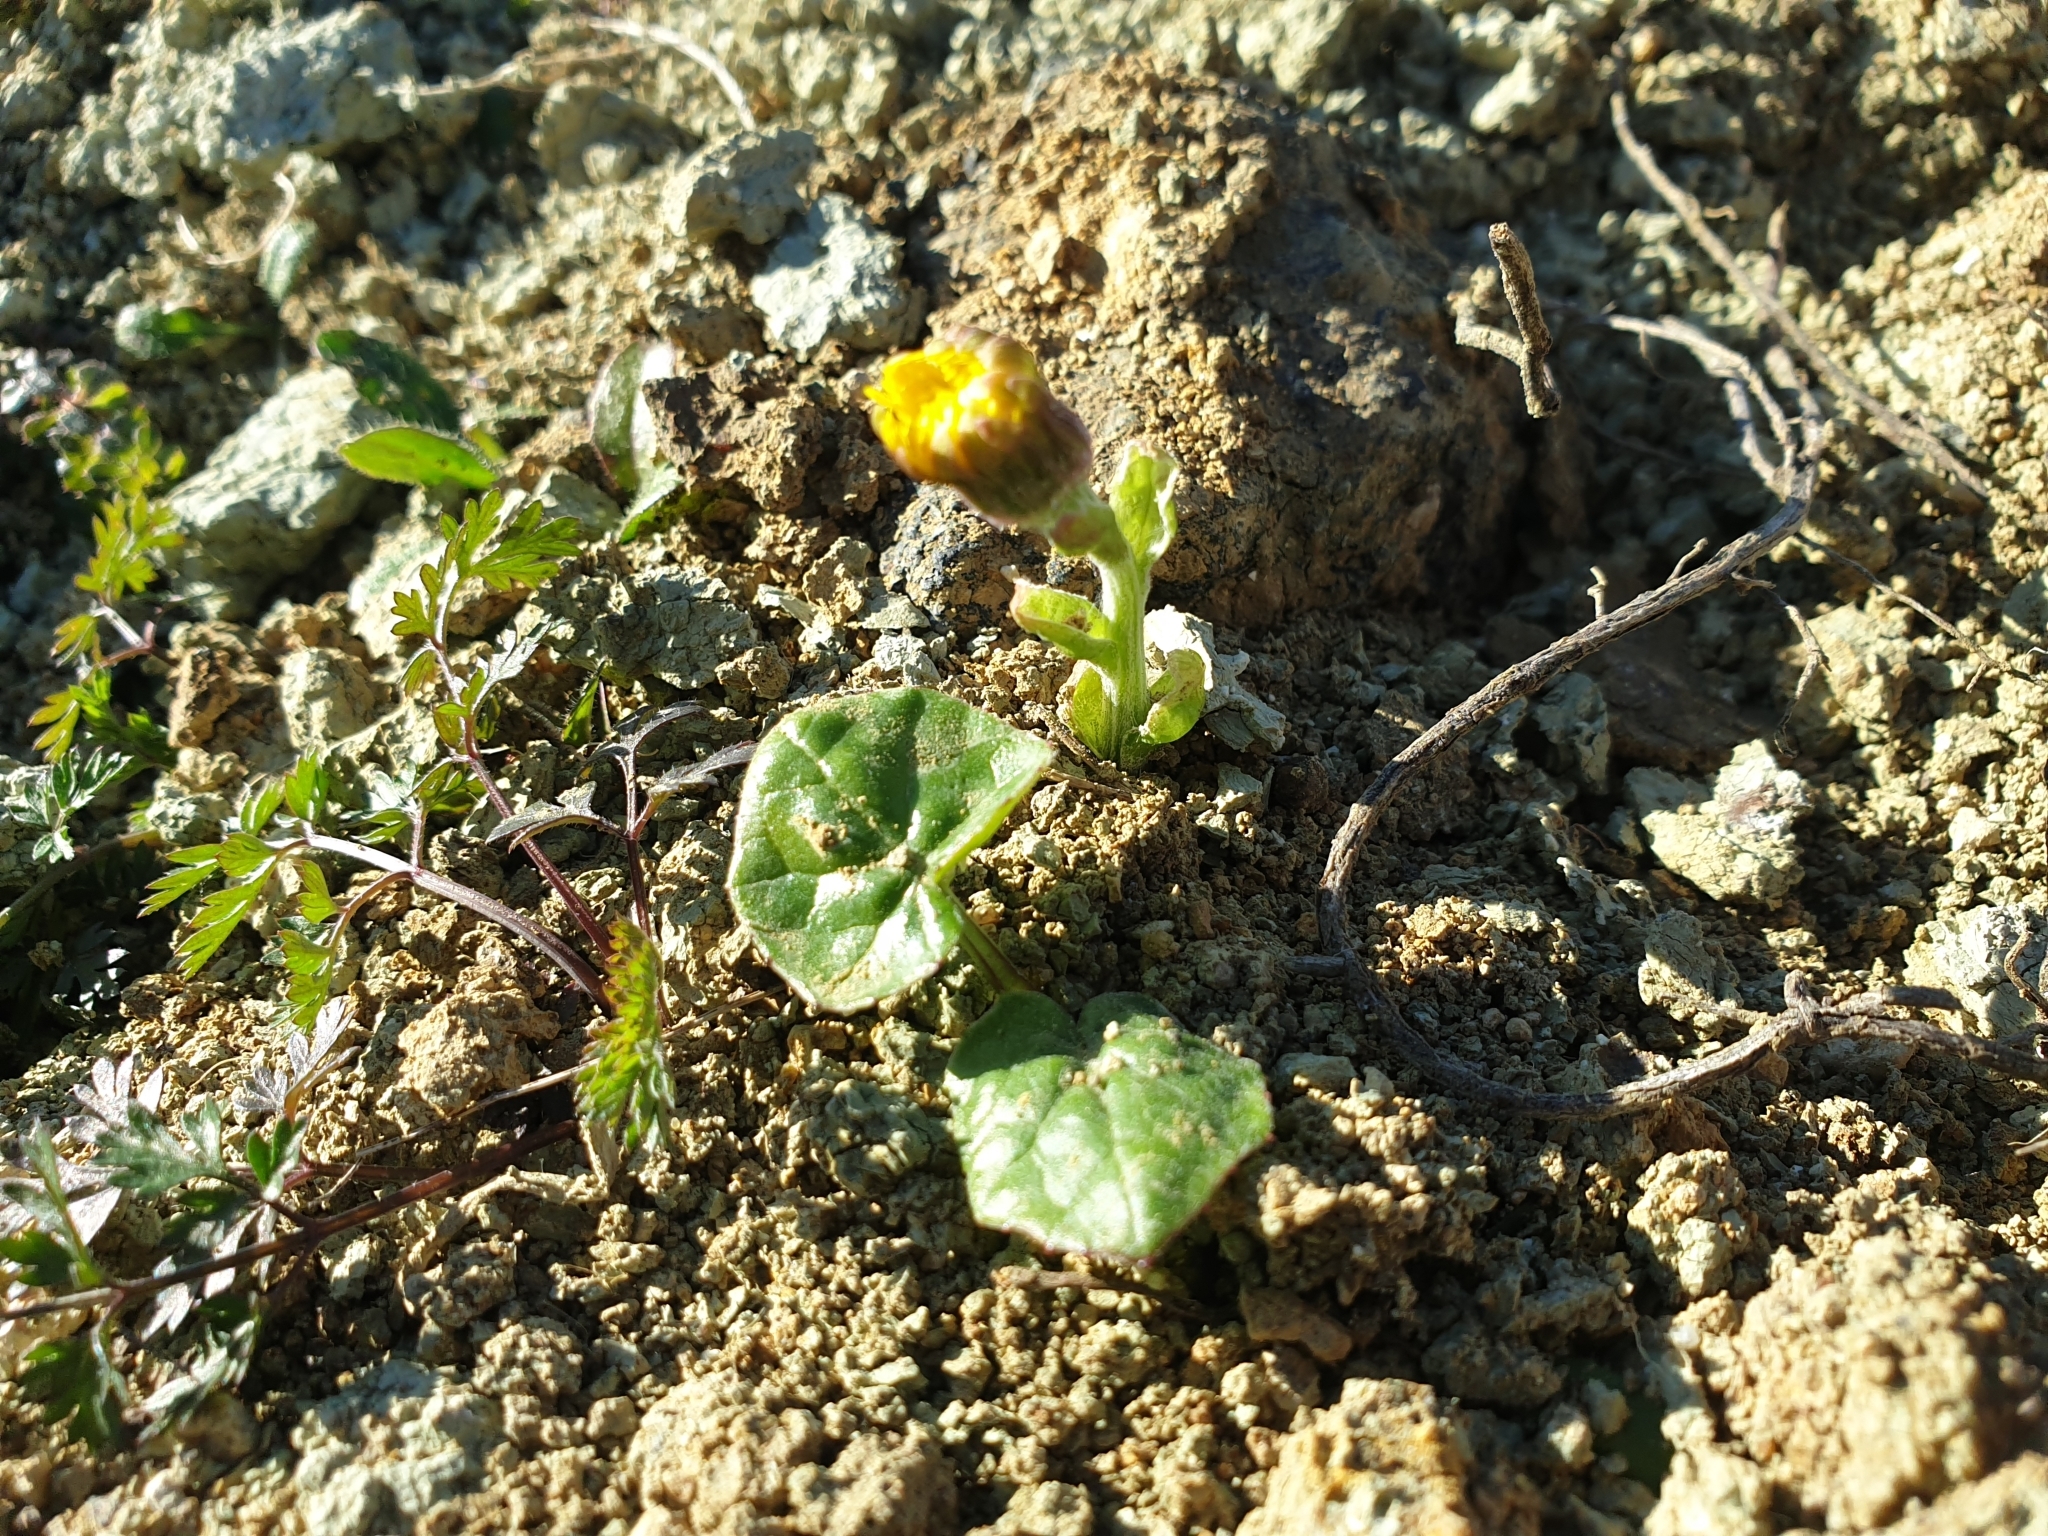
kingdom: Plantae
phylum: Tracheophyta
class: Magnoliopsida
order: Asterales
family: Asteraceae
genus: Tussilago
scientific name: Tussilago farfara
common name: Coltsfoot
